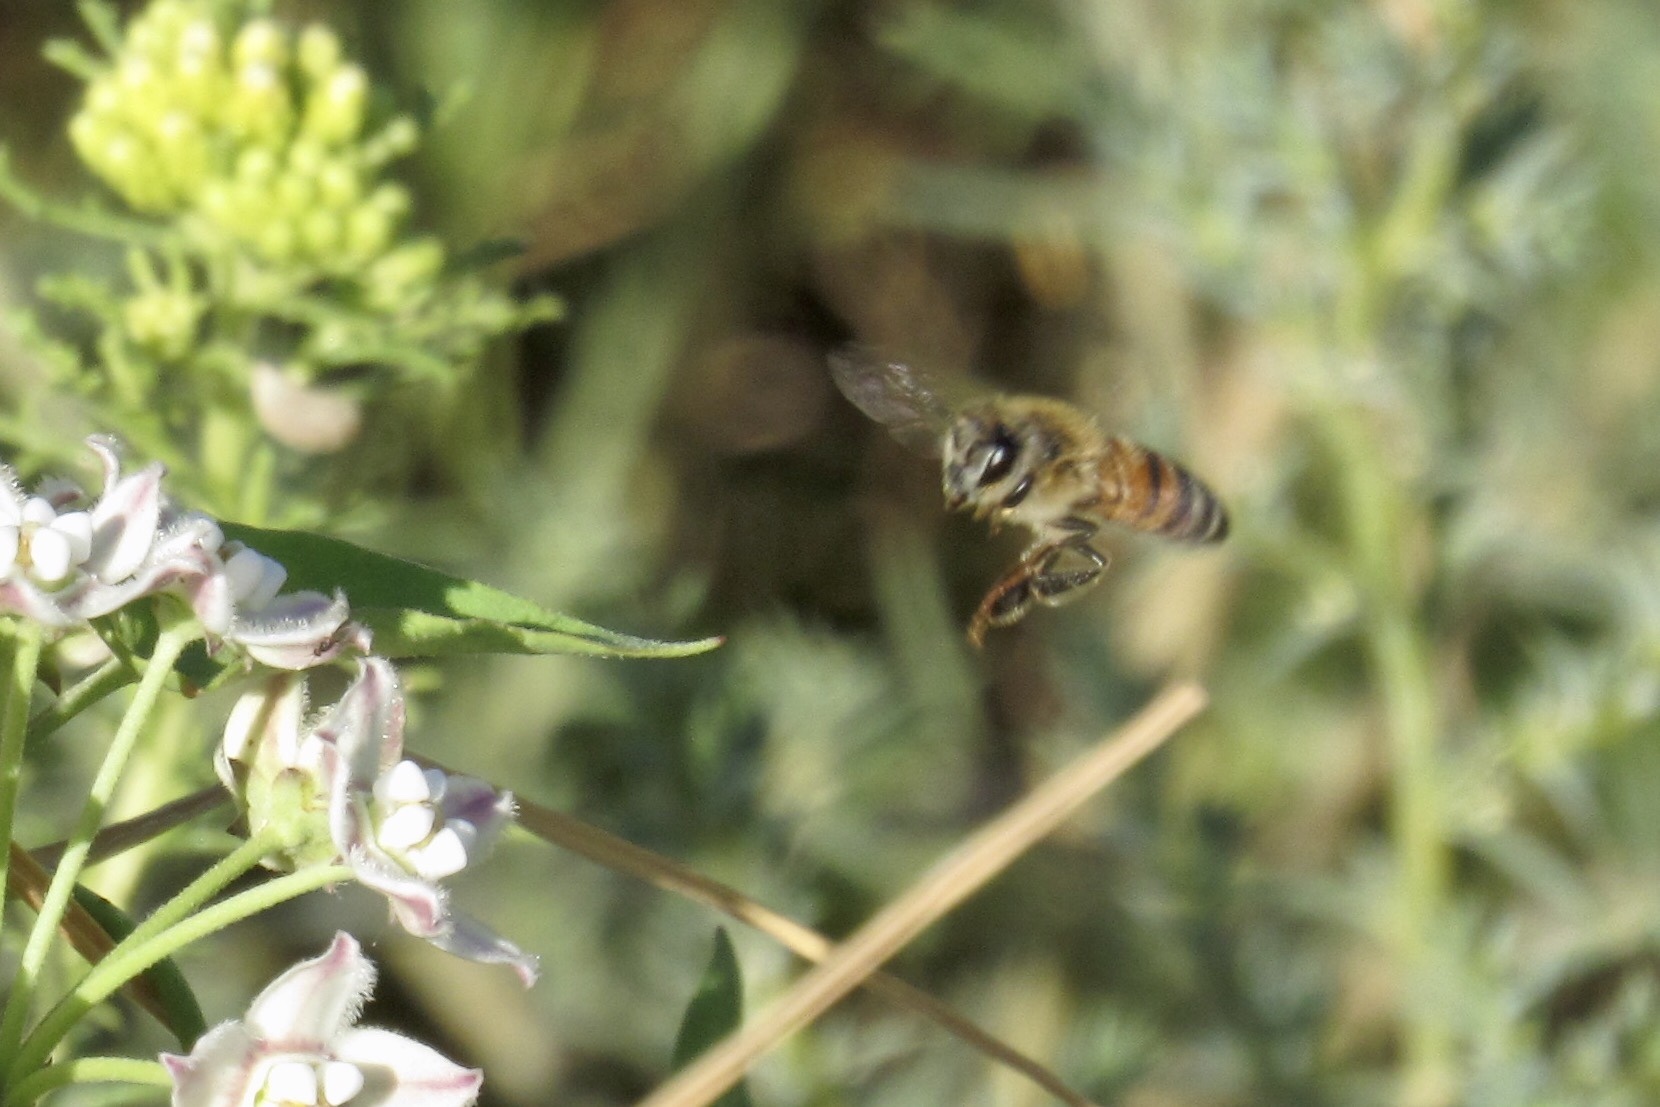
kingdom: Animalia
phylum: Arthropoda
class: Insecta
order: Hymenoptera
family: Apidae
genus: Apis
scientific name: Apis mellifera
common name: Honey bee
